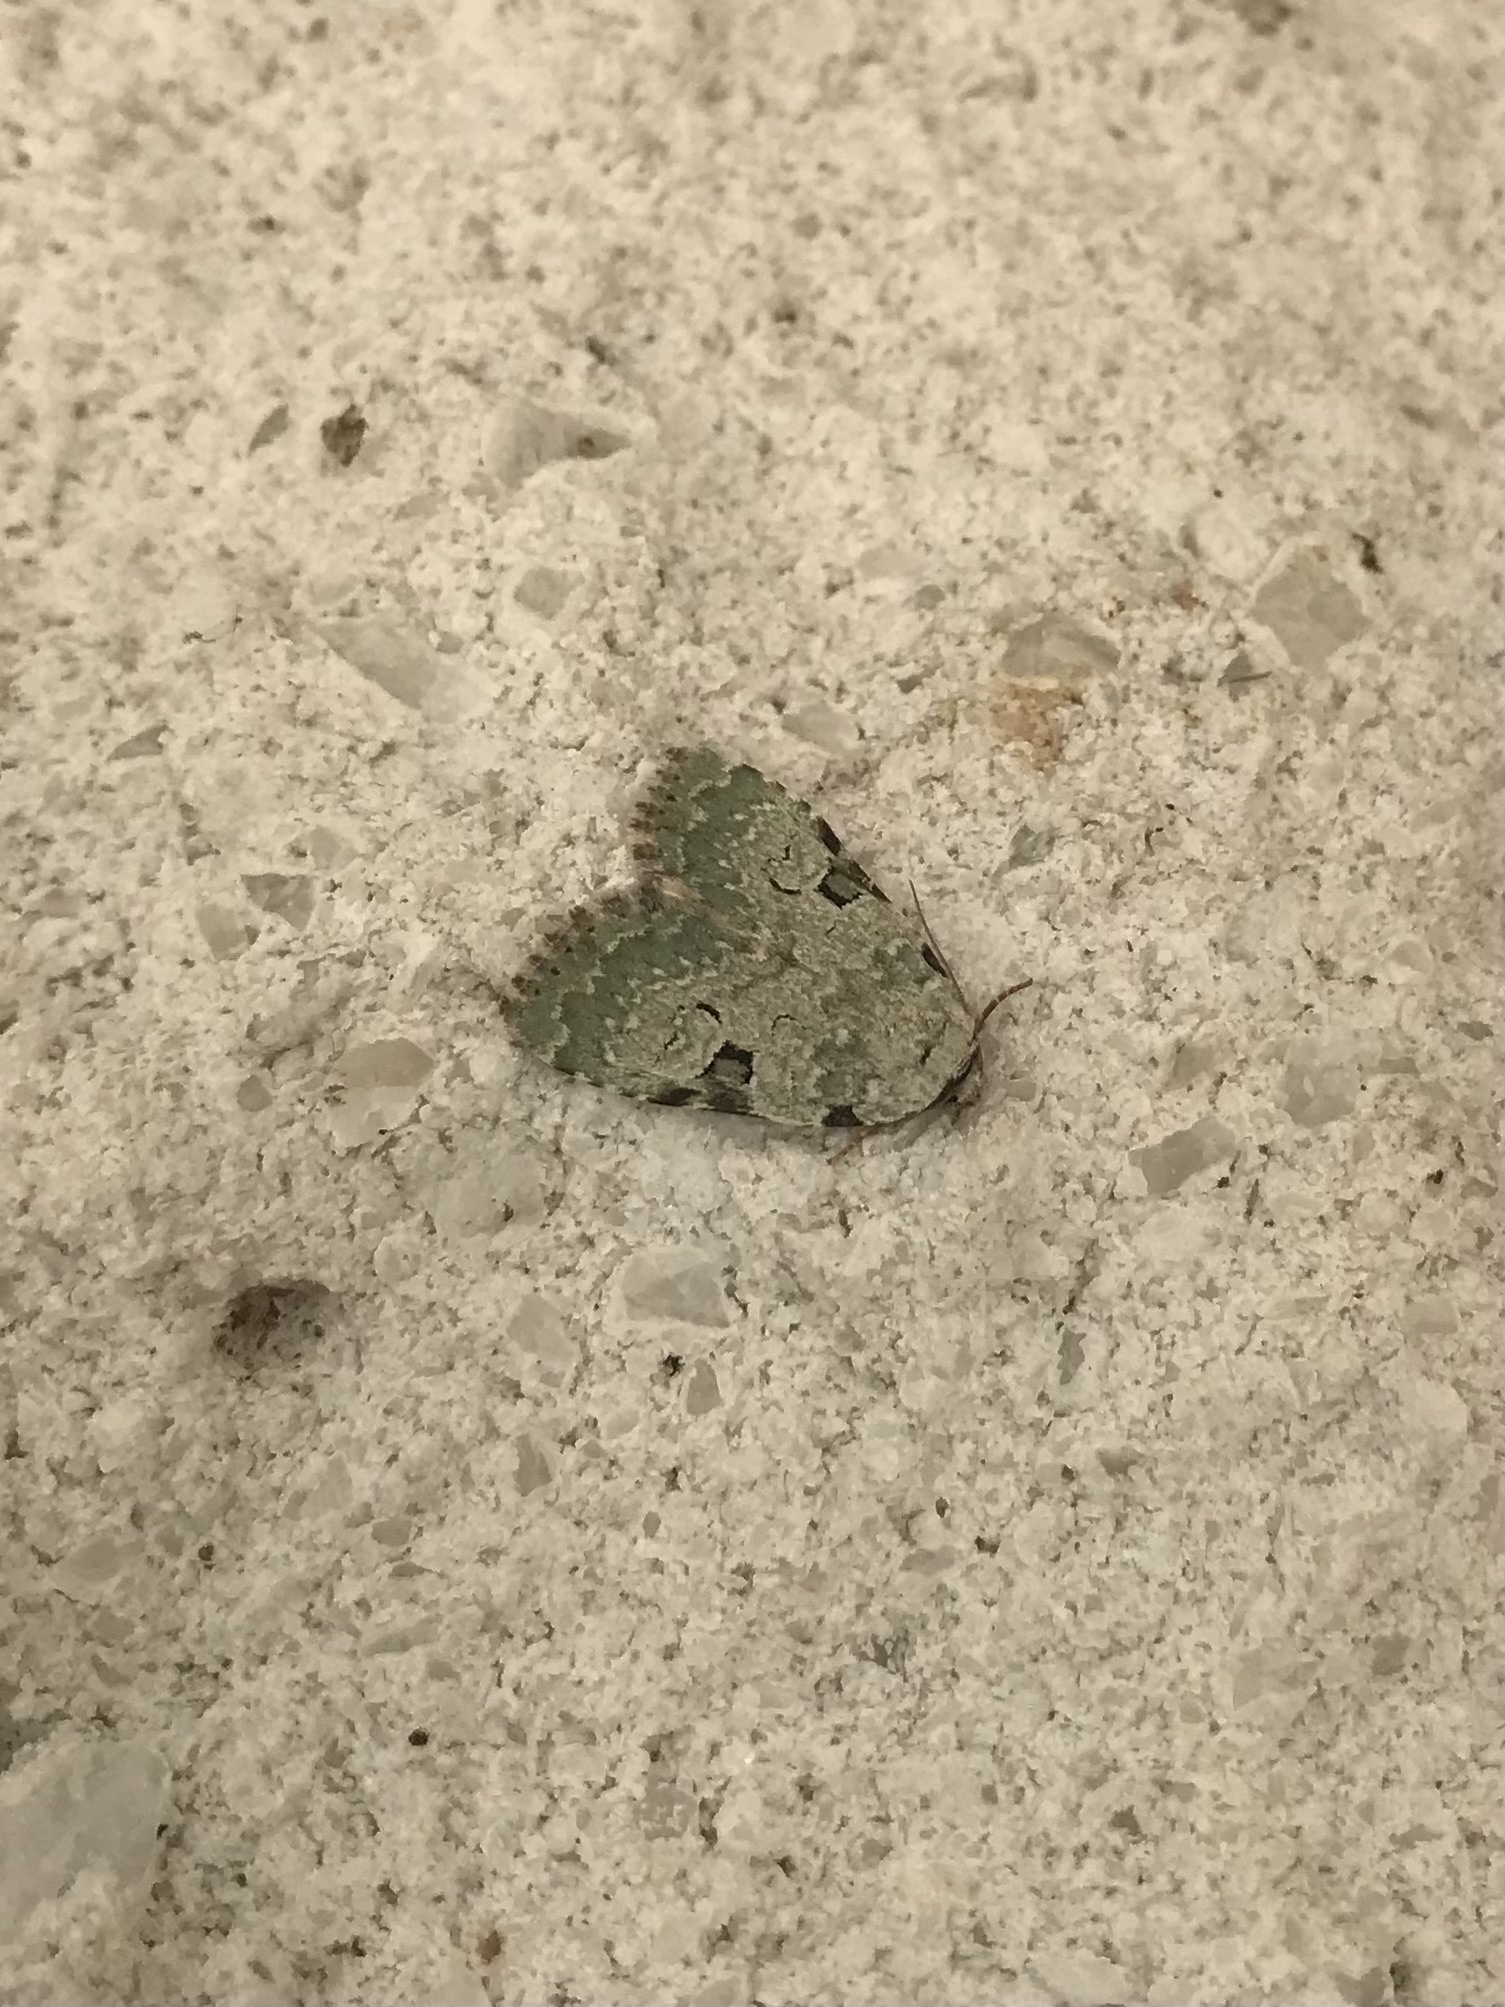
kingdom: Animalia
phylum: Arthropoda
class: Insecta
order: Lepidoptera
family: Noctuidae
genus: Leuconycta
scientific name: Leuconycta diphteroides
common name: Green leuconycta moth
